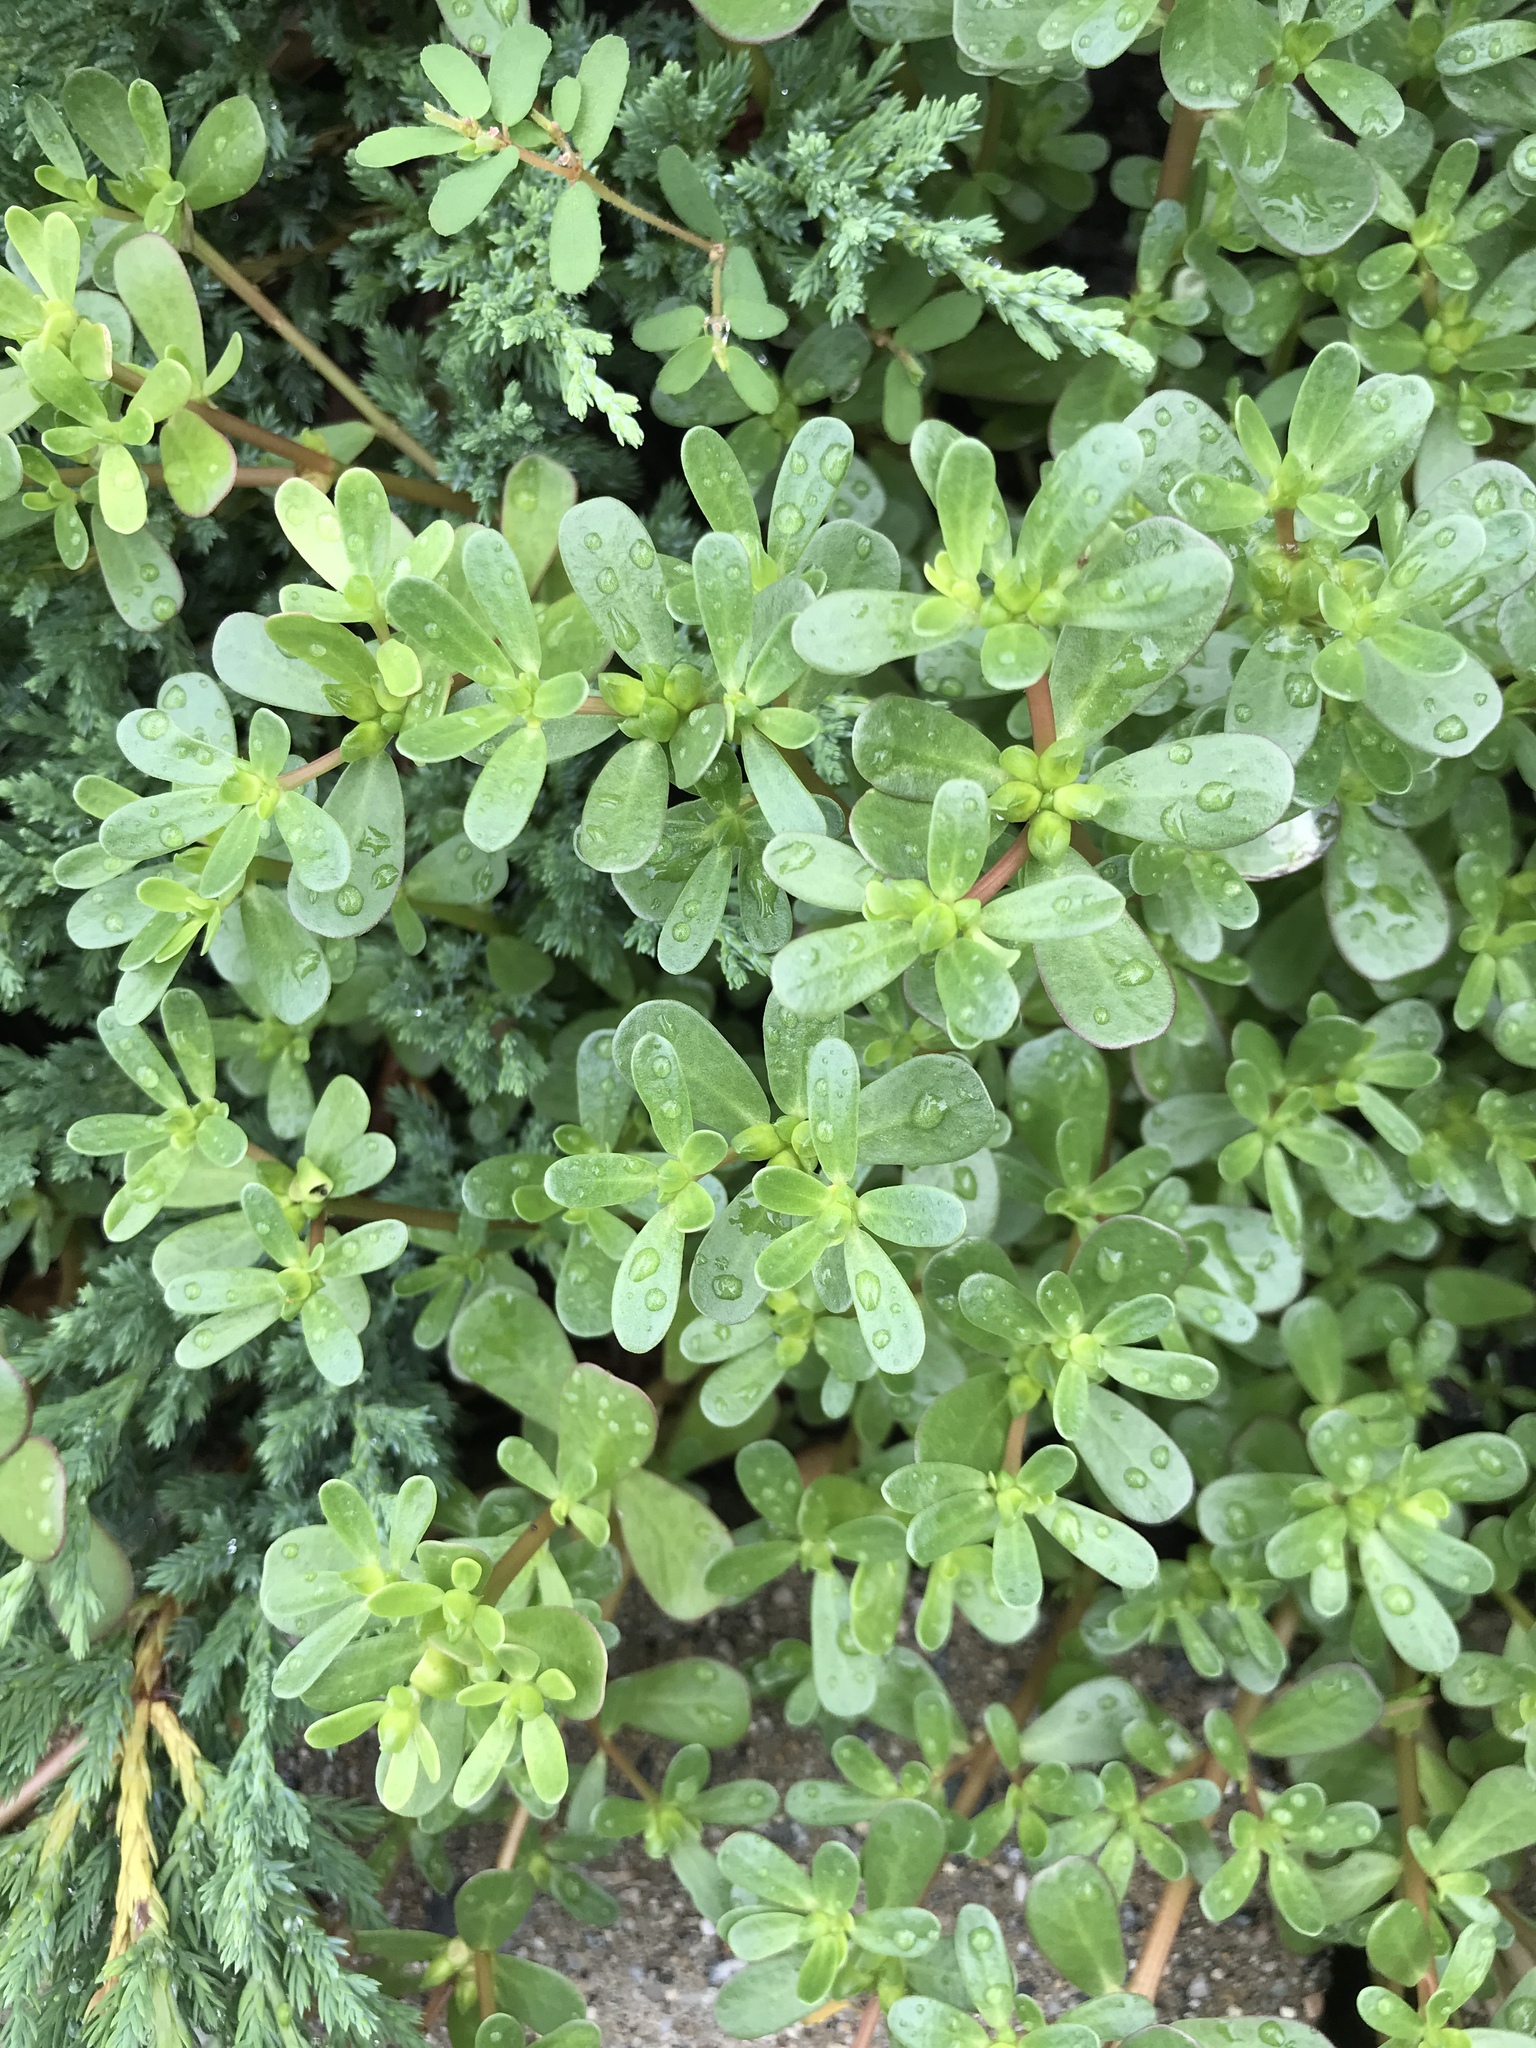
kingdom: Plantae
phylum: Tracheophyta
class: Magnoliopsida
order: Caryophyllales
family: Portulacaceae
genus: Portulaca
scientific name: Portulaca oleracea
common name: Common purslane
